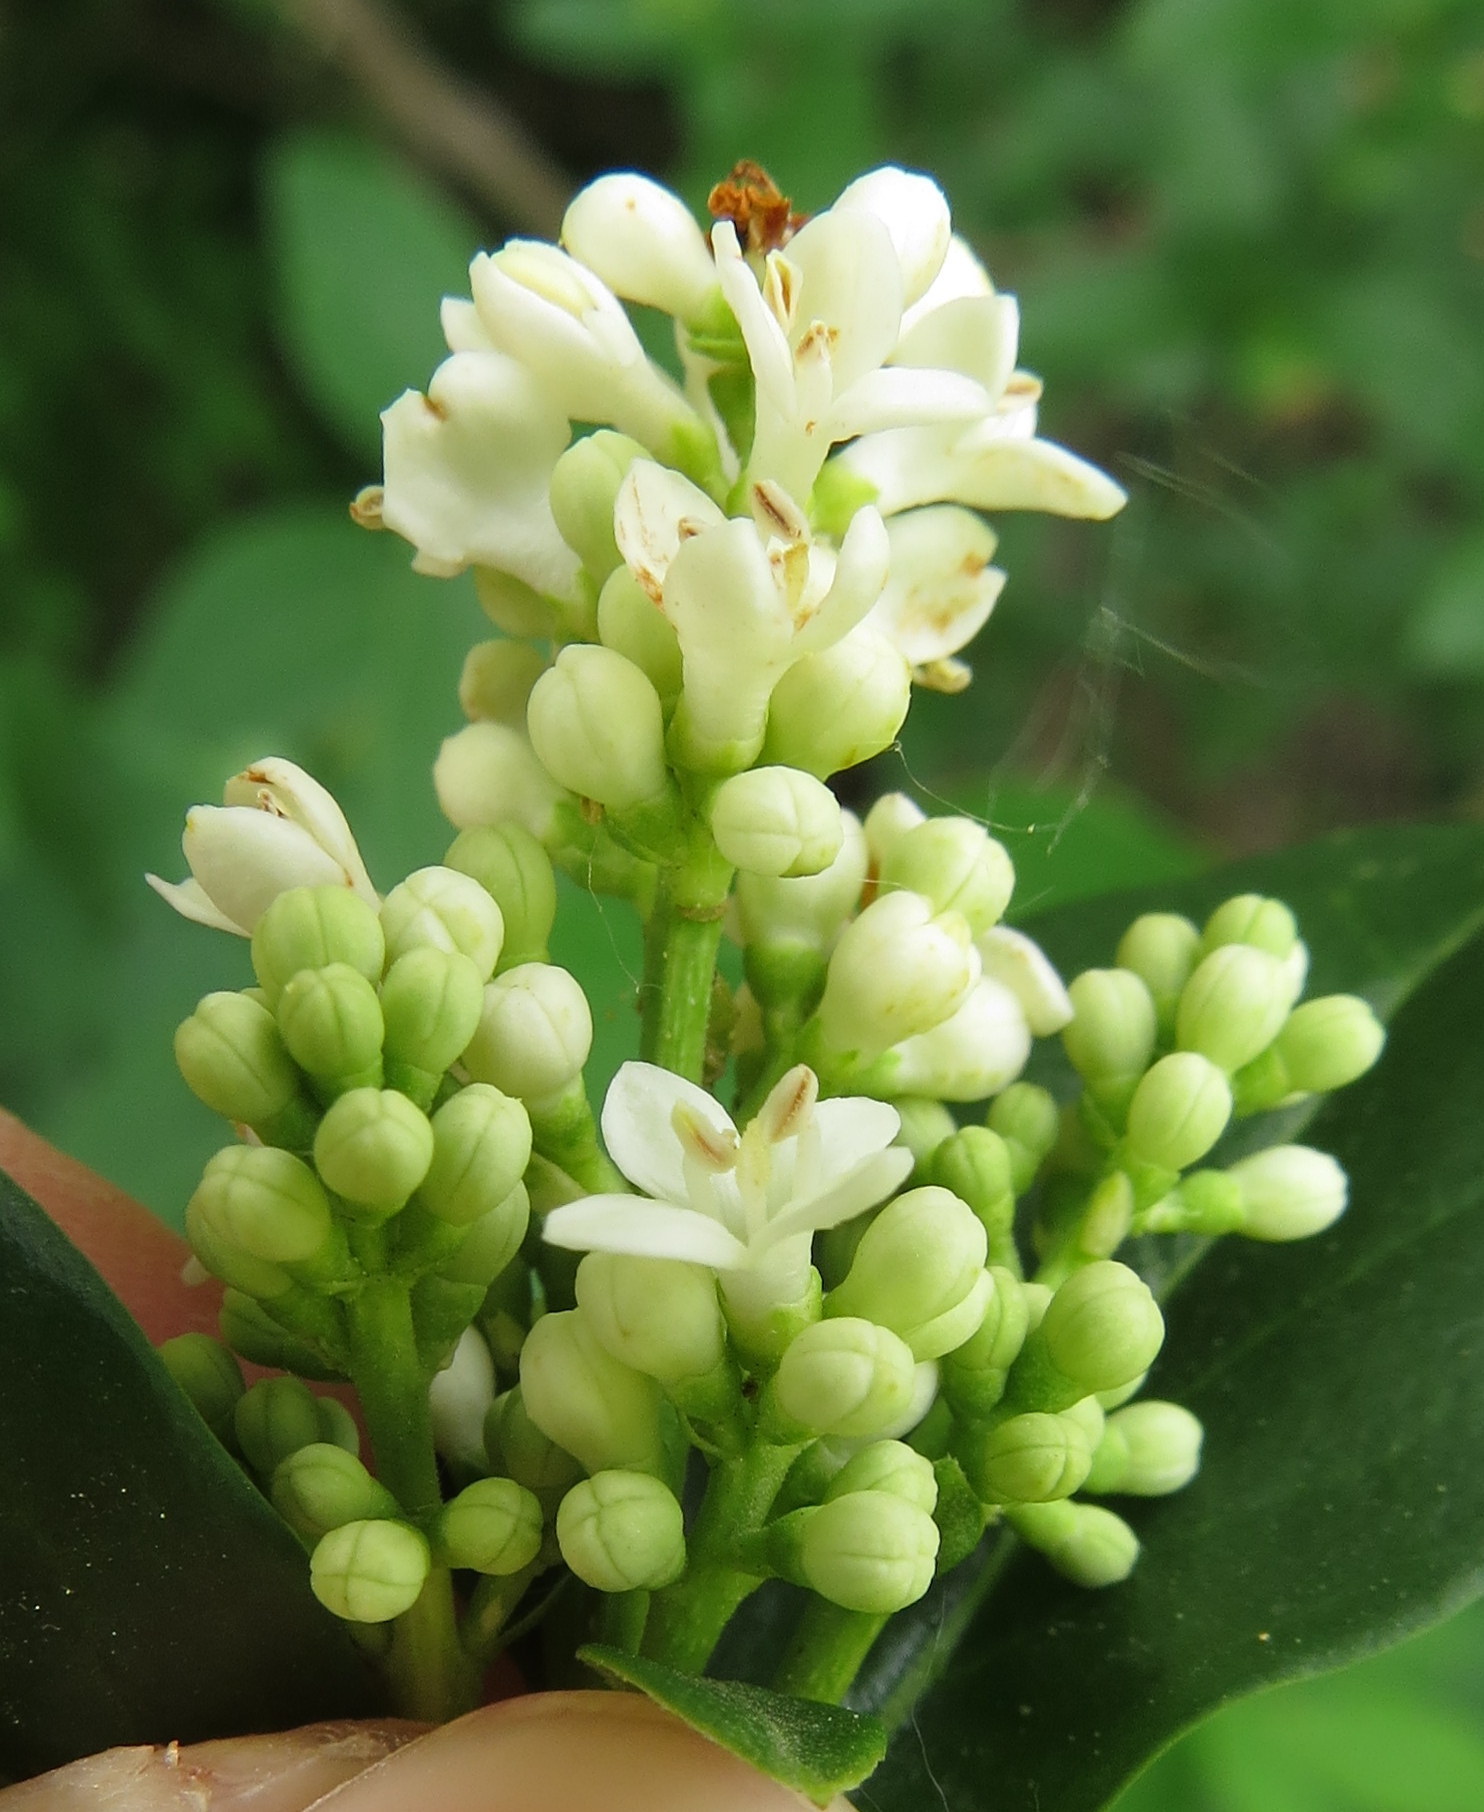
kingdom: Plantae
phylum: Tracheophyta
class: Magnoliopsida
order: Lamiales
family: Oleaceae
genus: Ligustrum
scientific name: Ligustrum vulgare
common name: Wild privet
